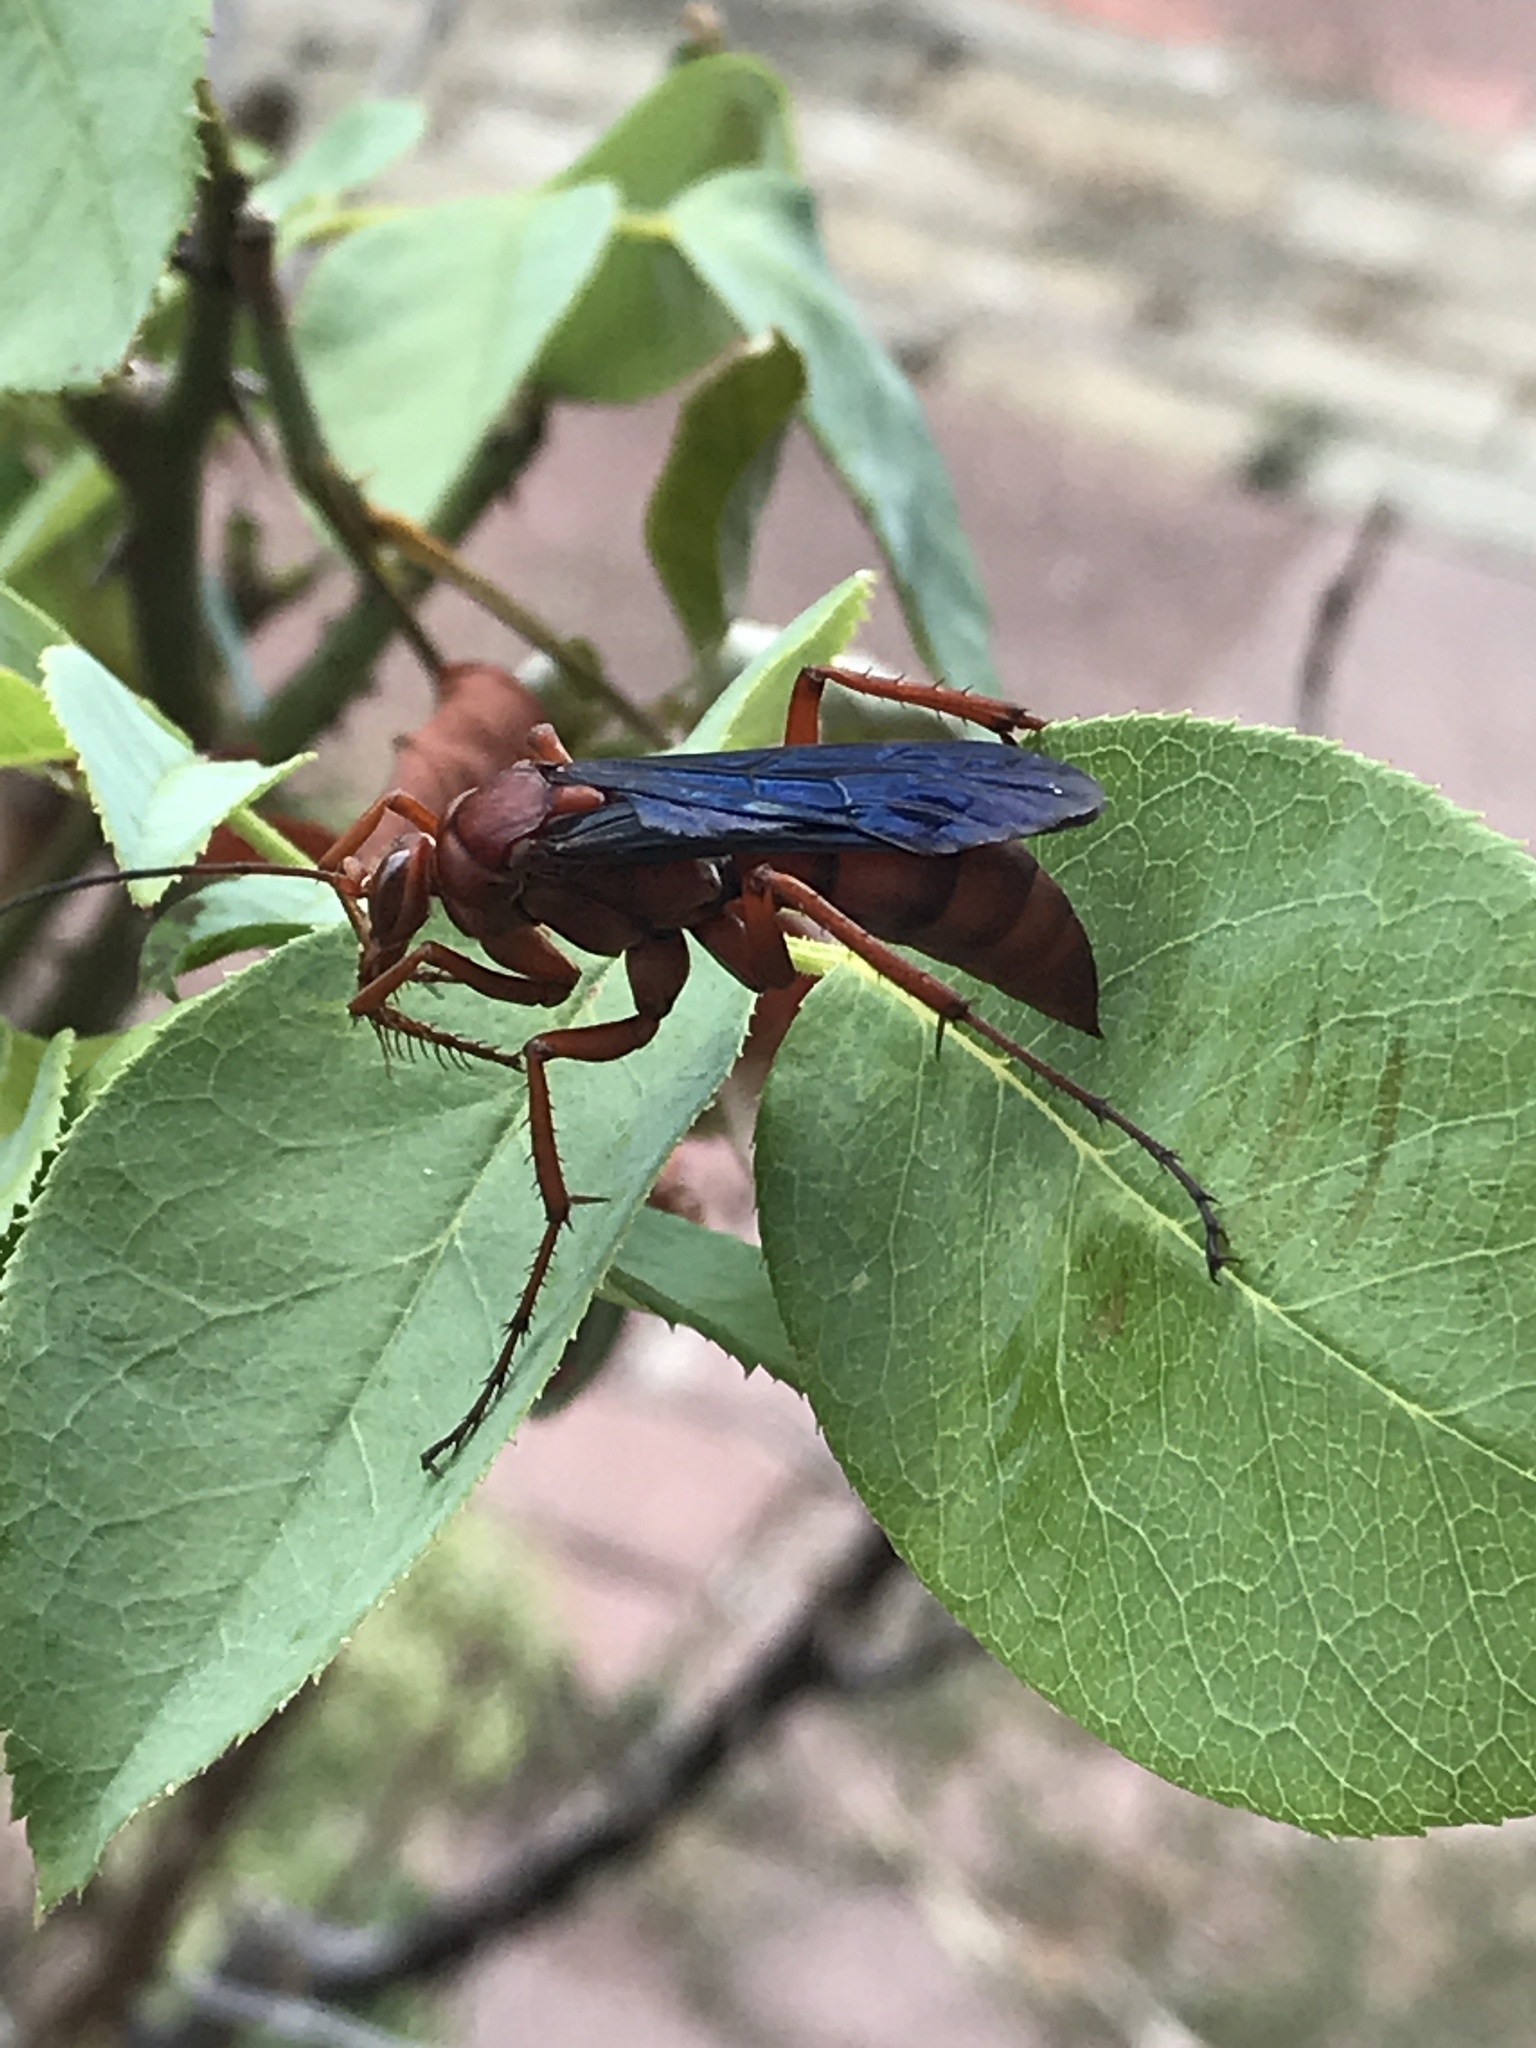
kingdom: Animalia
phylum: Arthropoda
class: Insecta
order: Hymenoptera
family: Pompilidae
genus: Tachypompilus
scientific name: Tachypompilus ferrugineus
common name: Rusty spider wasp
